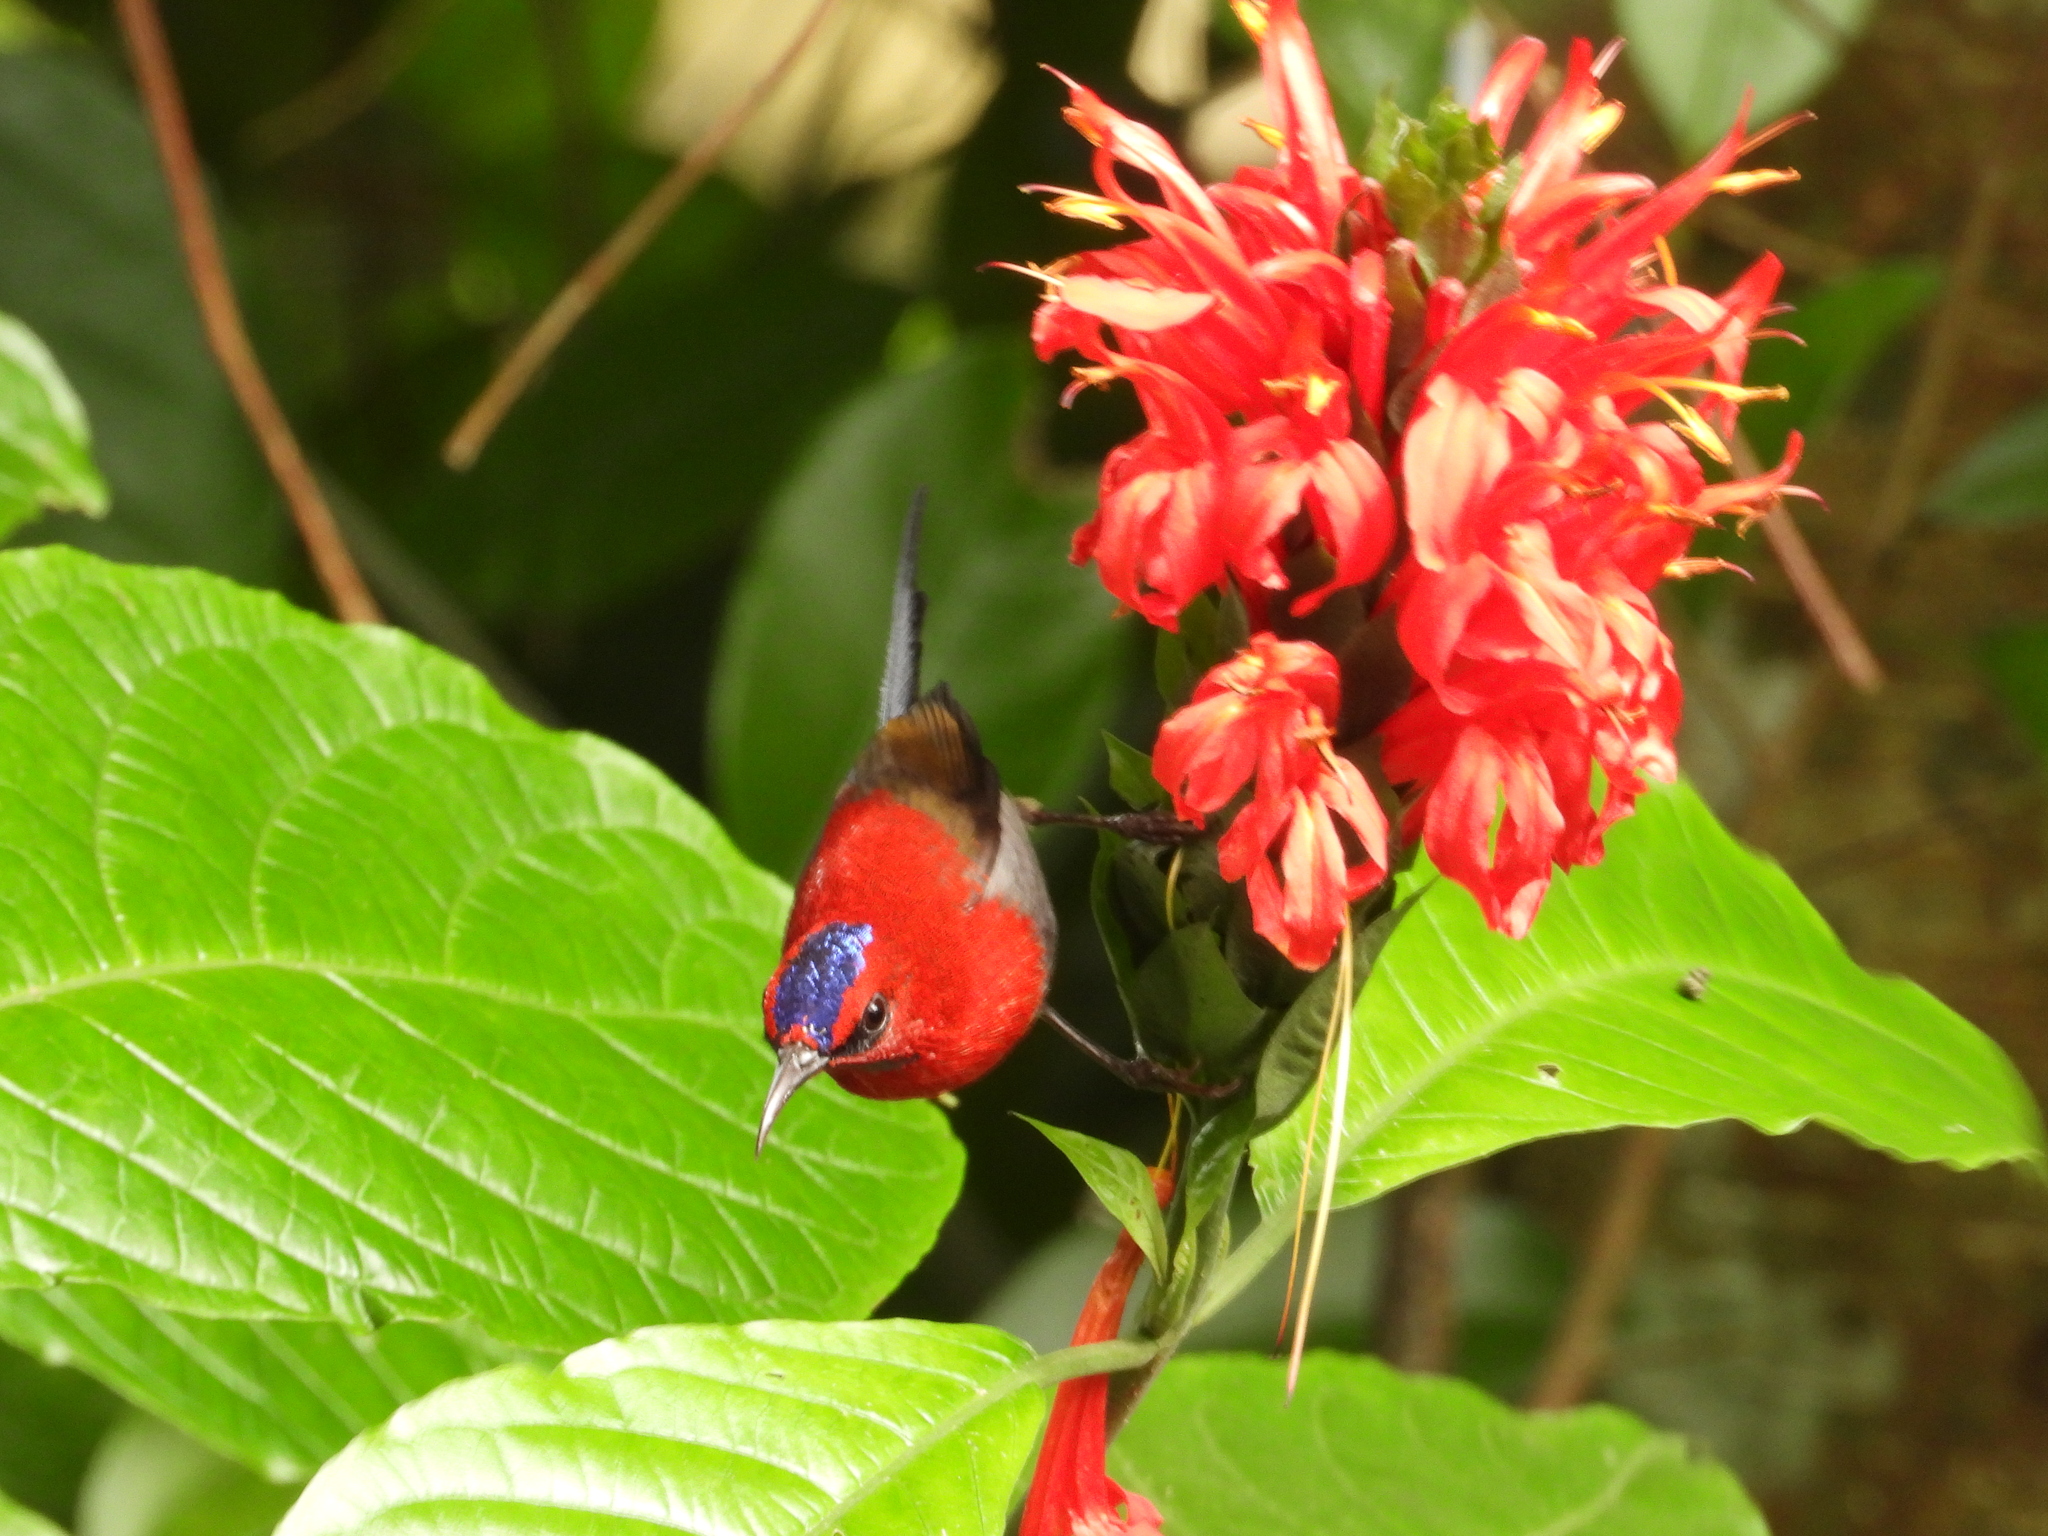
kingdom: Animalia
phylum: Chordata
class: Aves
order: Passeriformes
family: Nectariniidae
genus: Aethopyga
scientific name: Aethopyga mystacalis
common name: Javan sunbird
